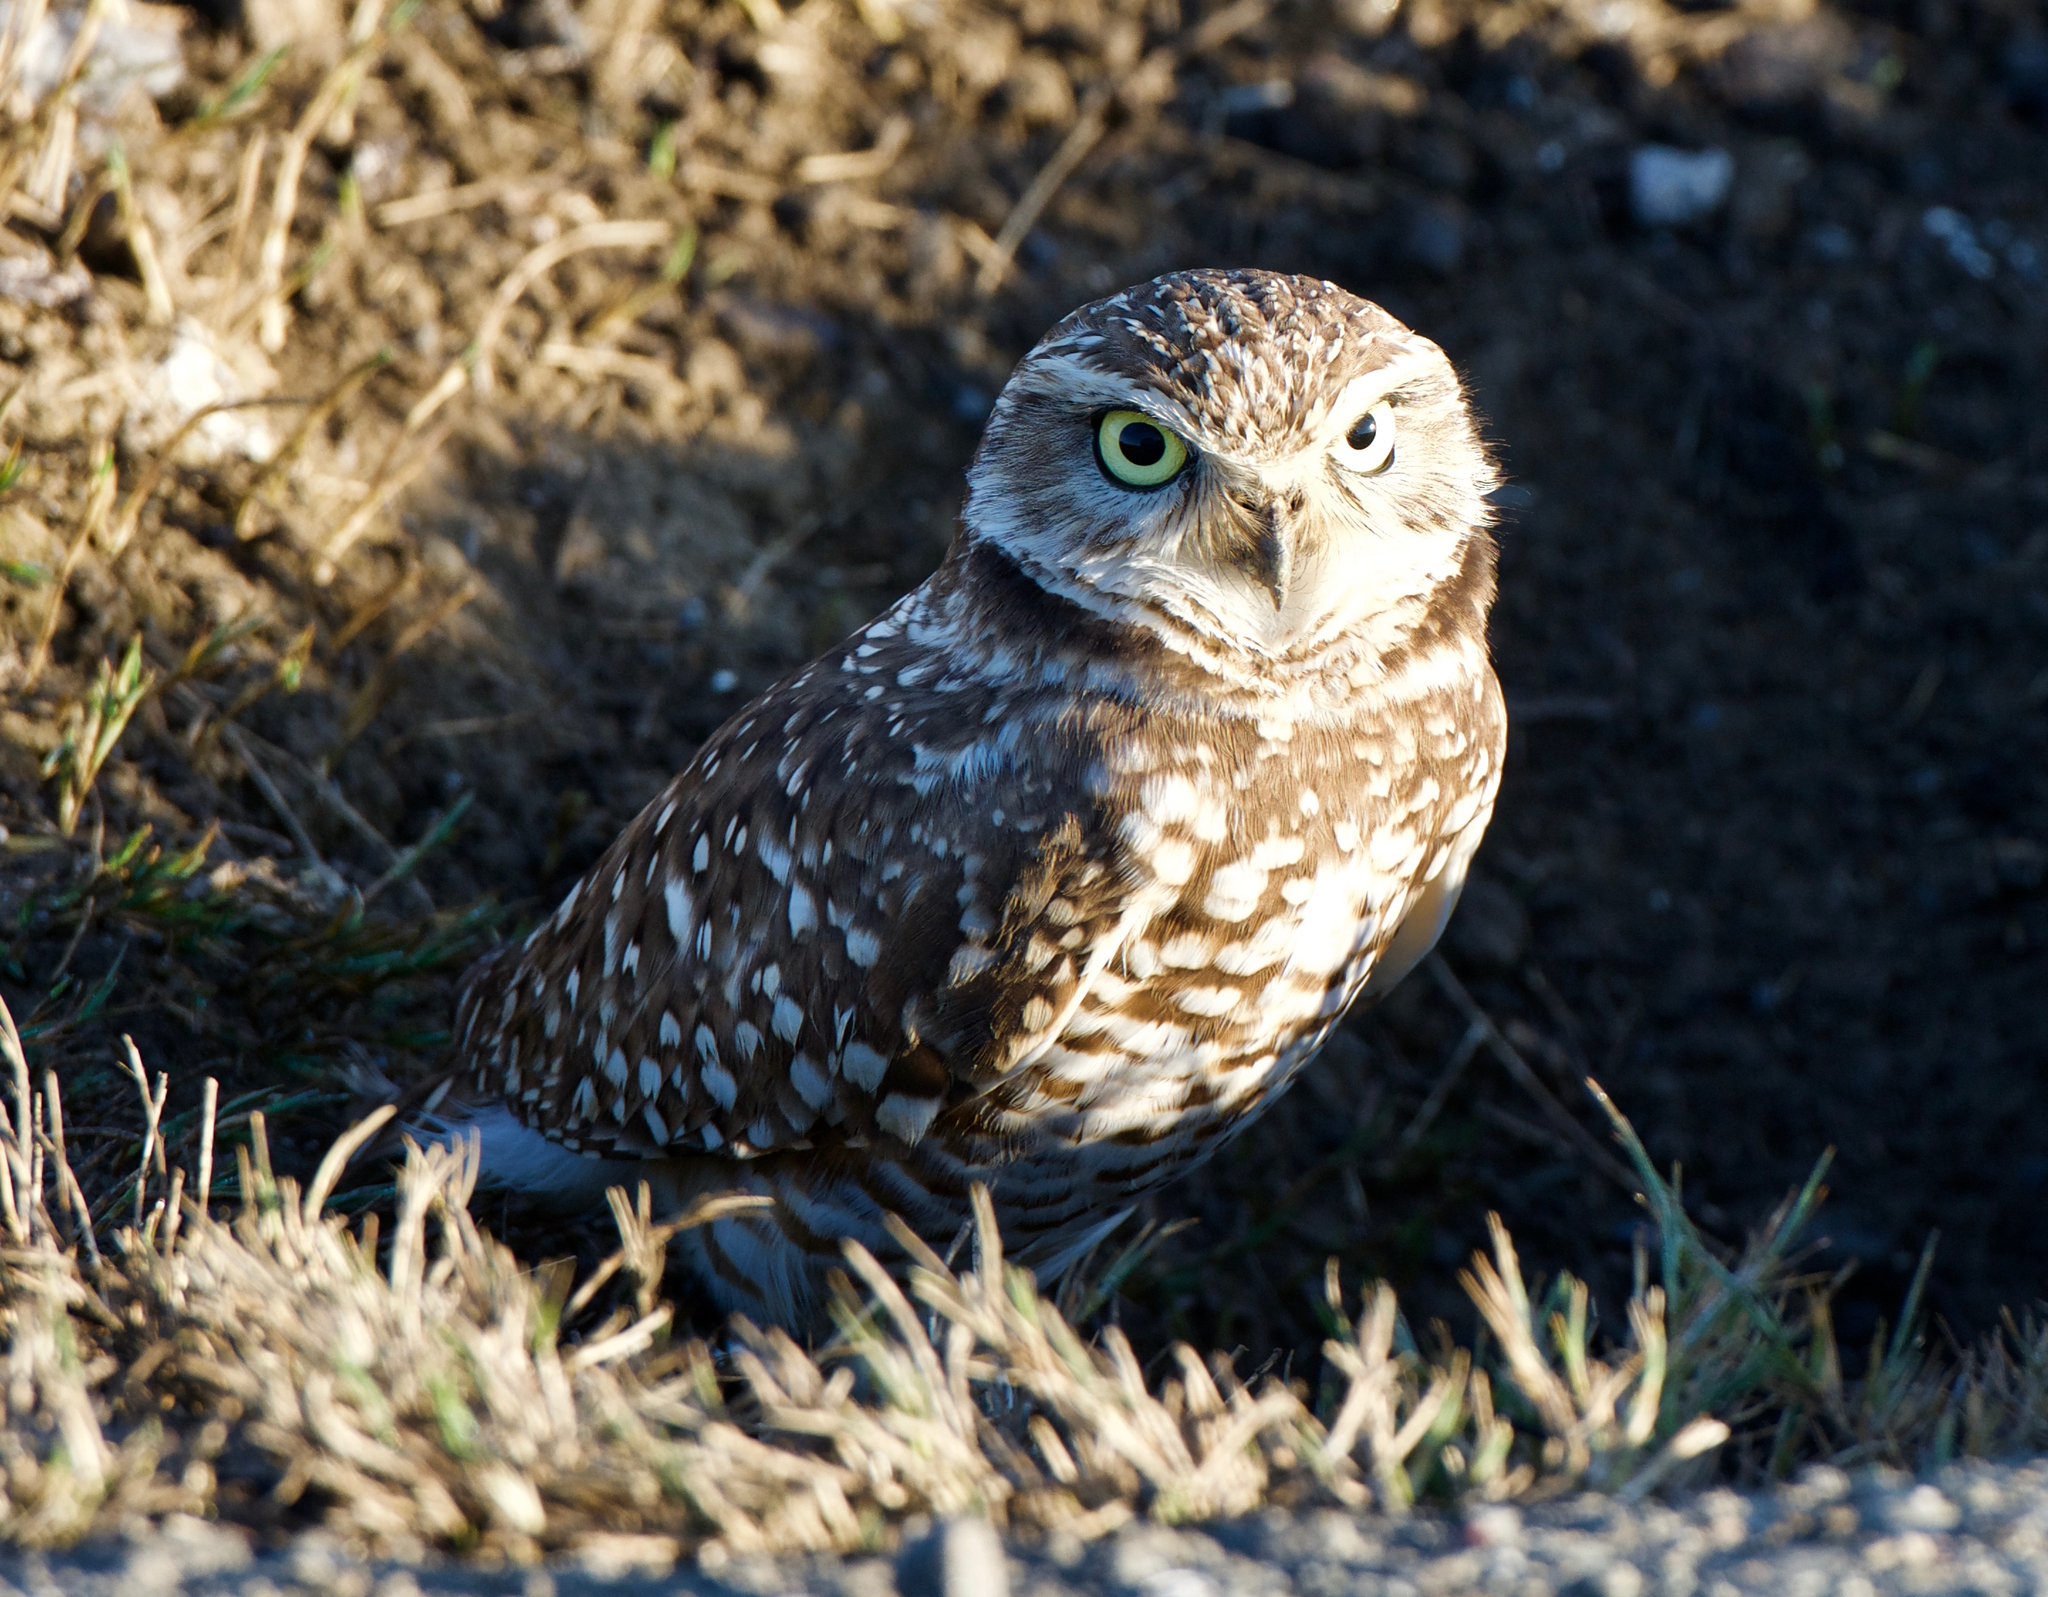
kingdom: Animalia
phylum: Chordata
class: Aves
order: Strigiformes
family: Strigidae
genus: Athene
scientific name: Athene cunicularia
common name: Burrowing owl
